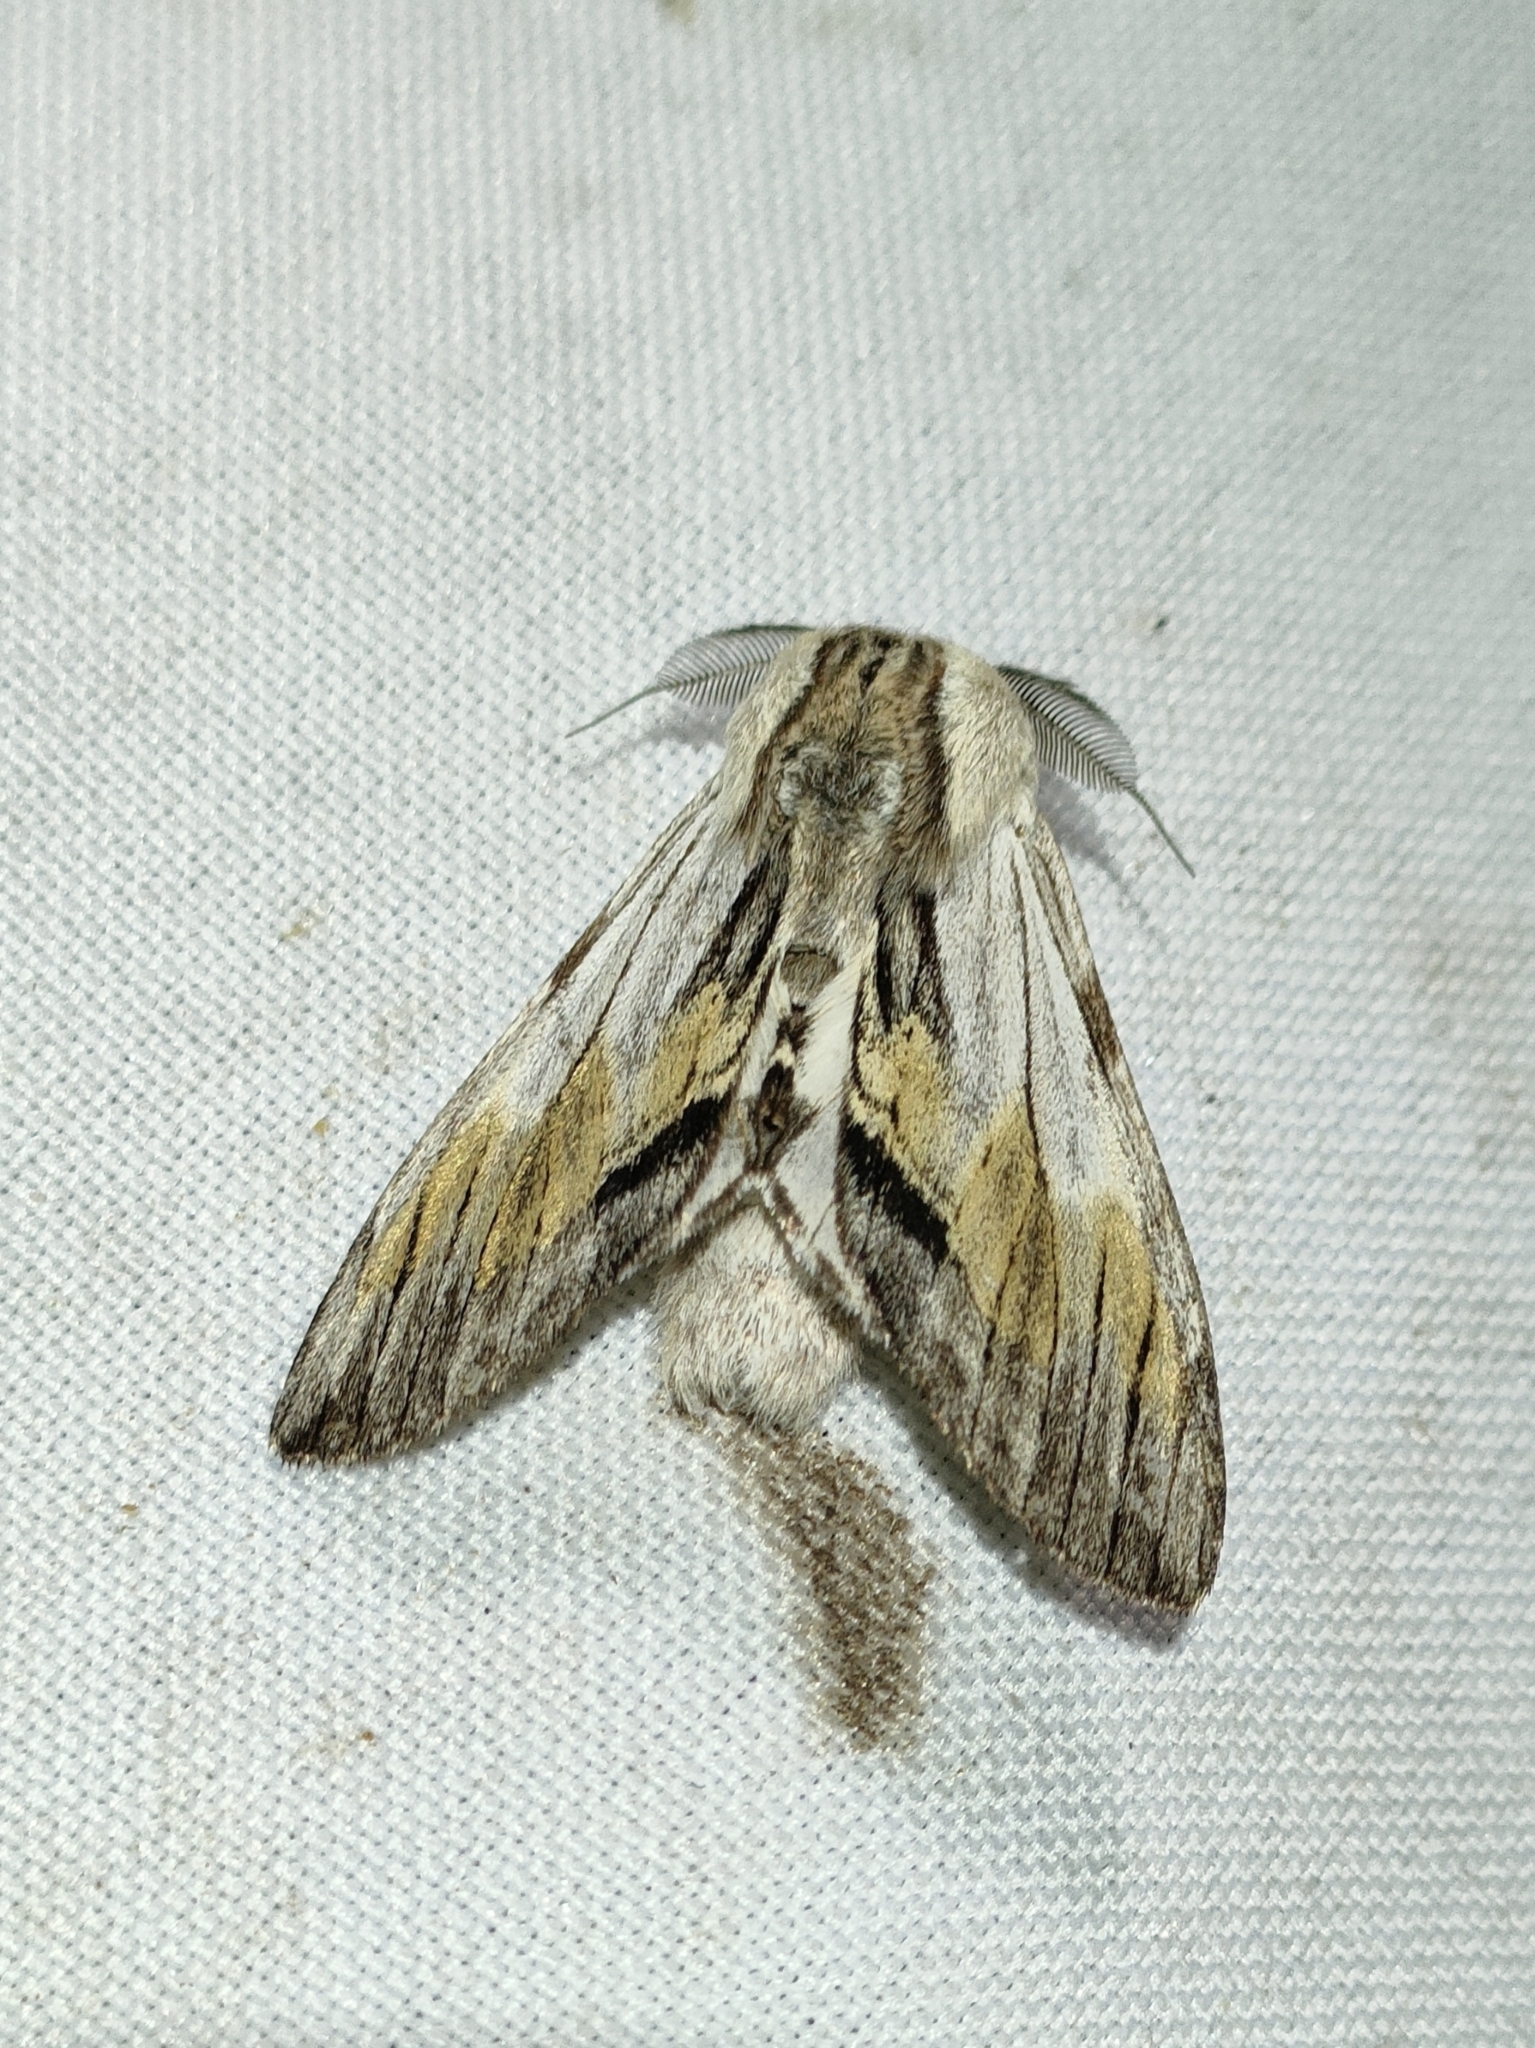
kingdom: Animalia
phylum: Arthropoda
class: Insecta
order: Lepidoptera
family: Notodontidae
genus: Harpyia
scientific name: Harpyia milhauseri
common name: Tawny prominent
